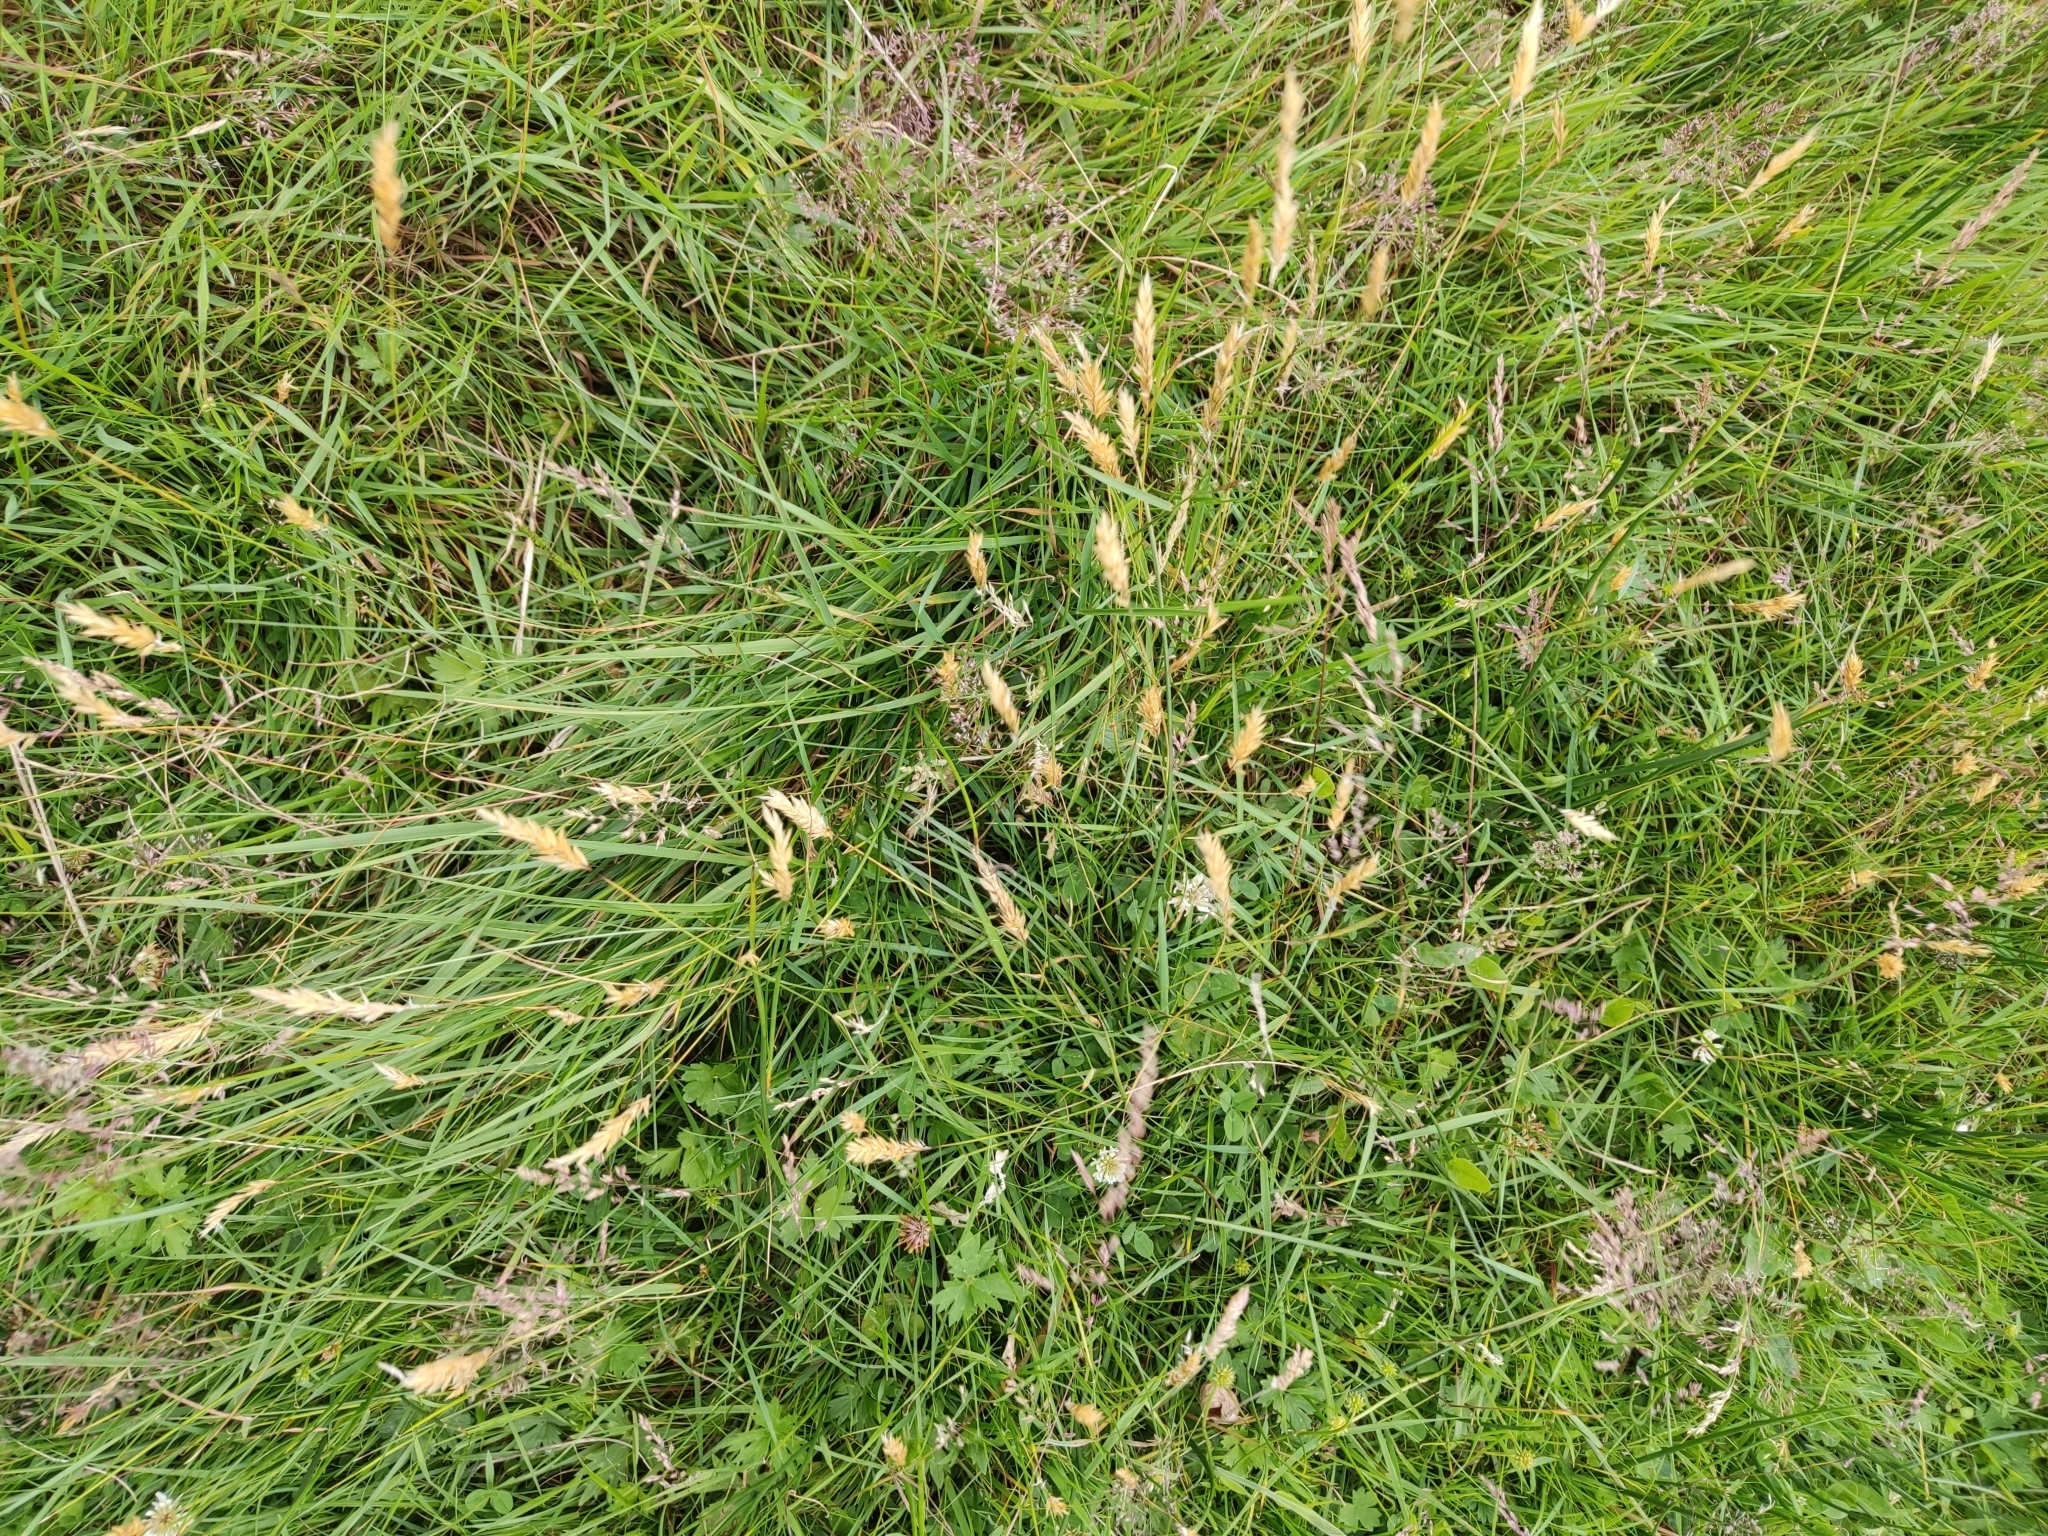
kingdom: Plantae
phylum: Tracheophyta
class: Liliopsida
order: Poales
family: Poaceae
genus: Anthoxanthum
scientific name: Anthoxanthum odoratum
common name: Sweet vernalgrass
